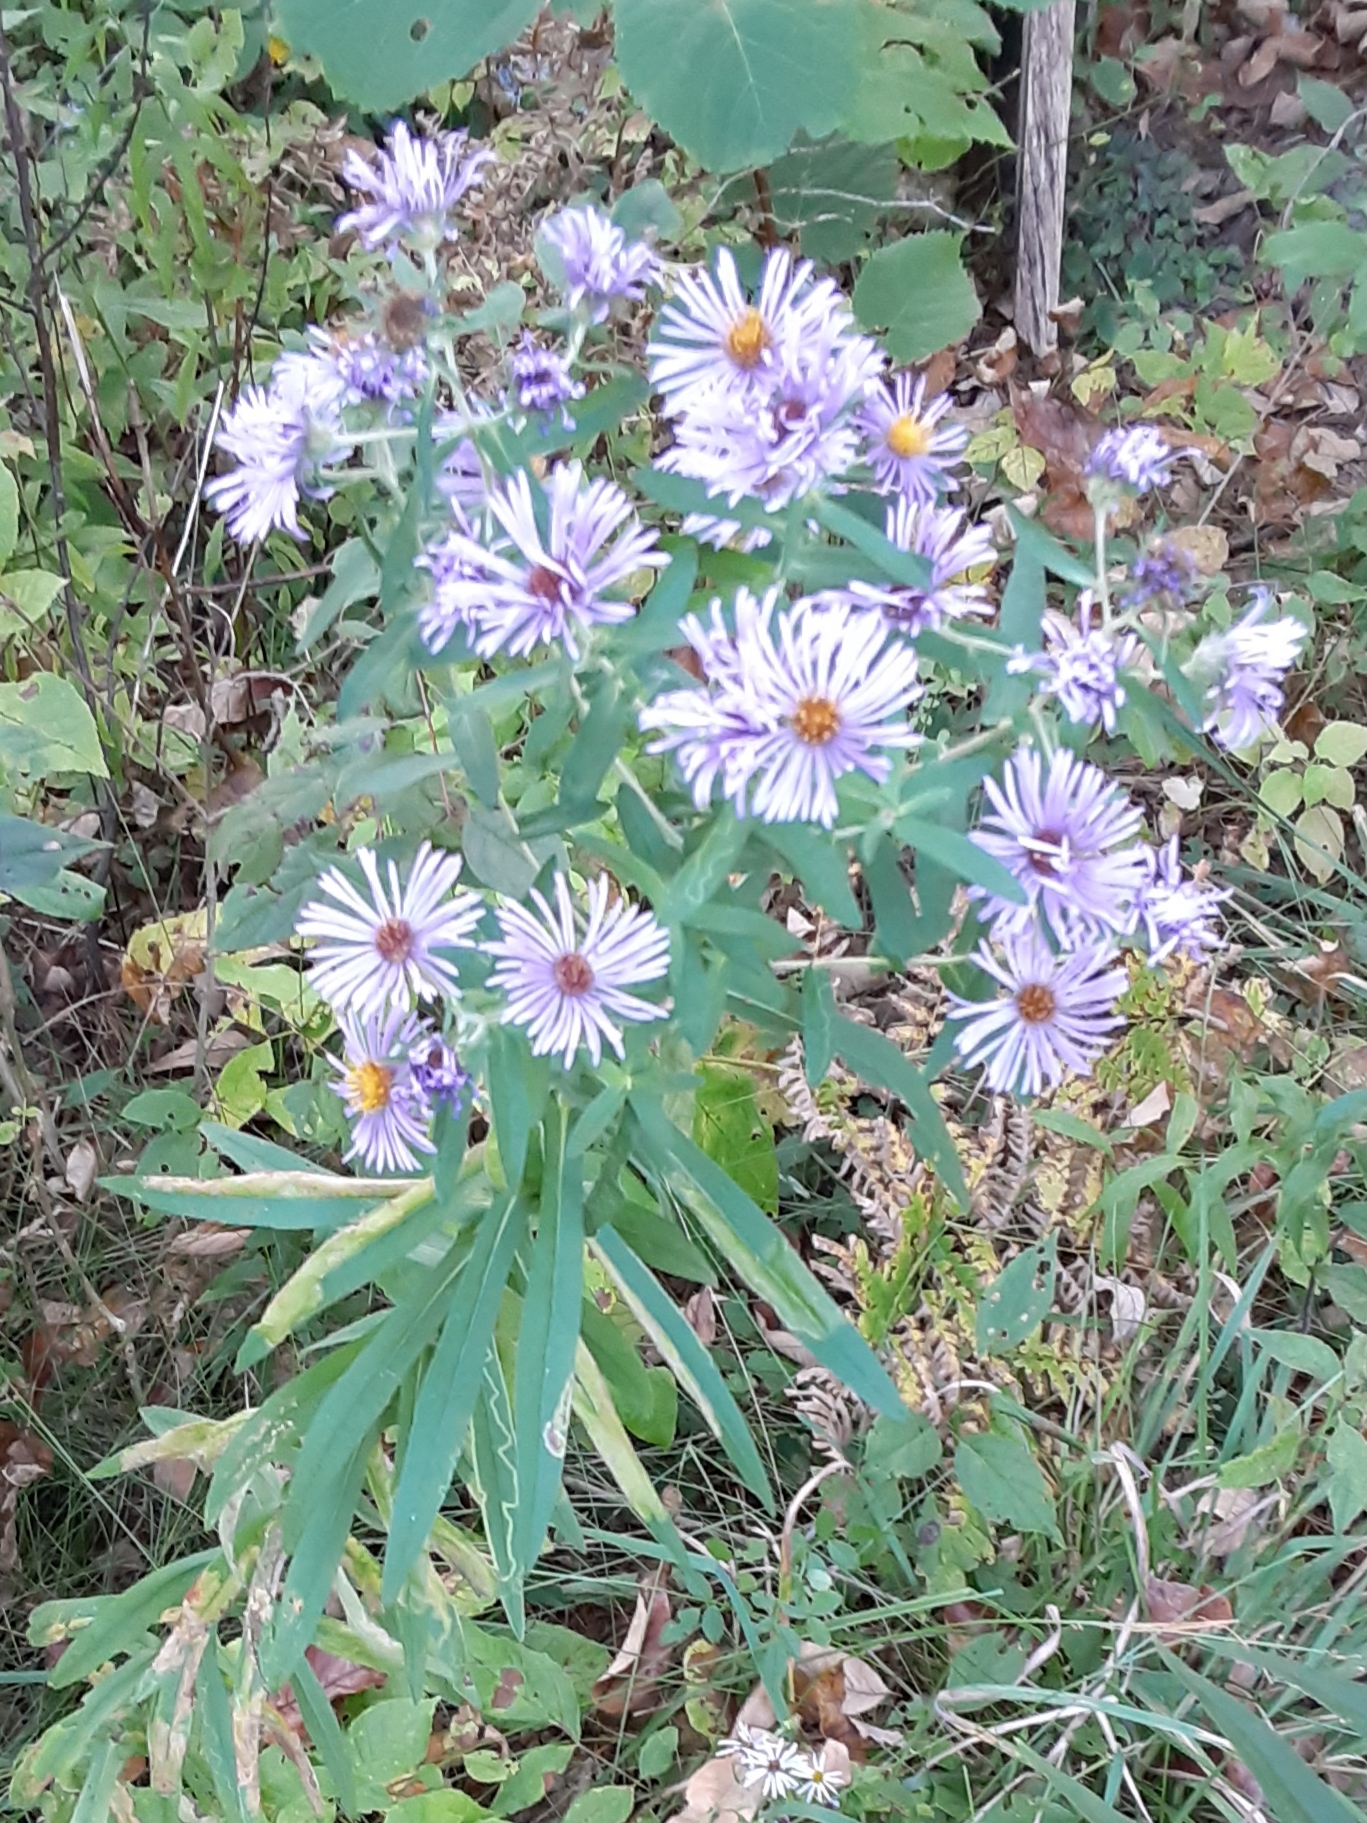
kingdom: Plantae
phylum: Tracheophyta
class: Magnoliopsida
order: Asterales
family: Asteraceae
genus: Symphyotrichum
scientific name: Symphyotrichum novae-angliae
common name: Michaelmas daisy
